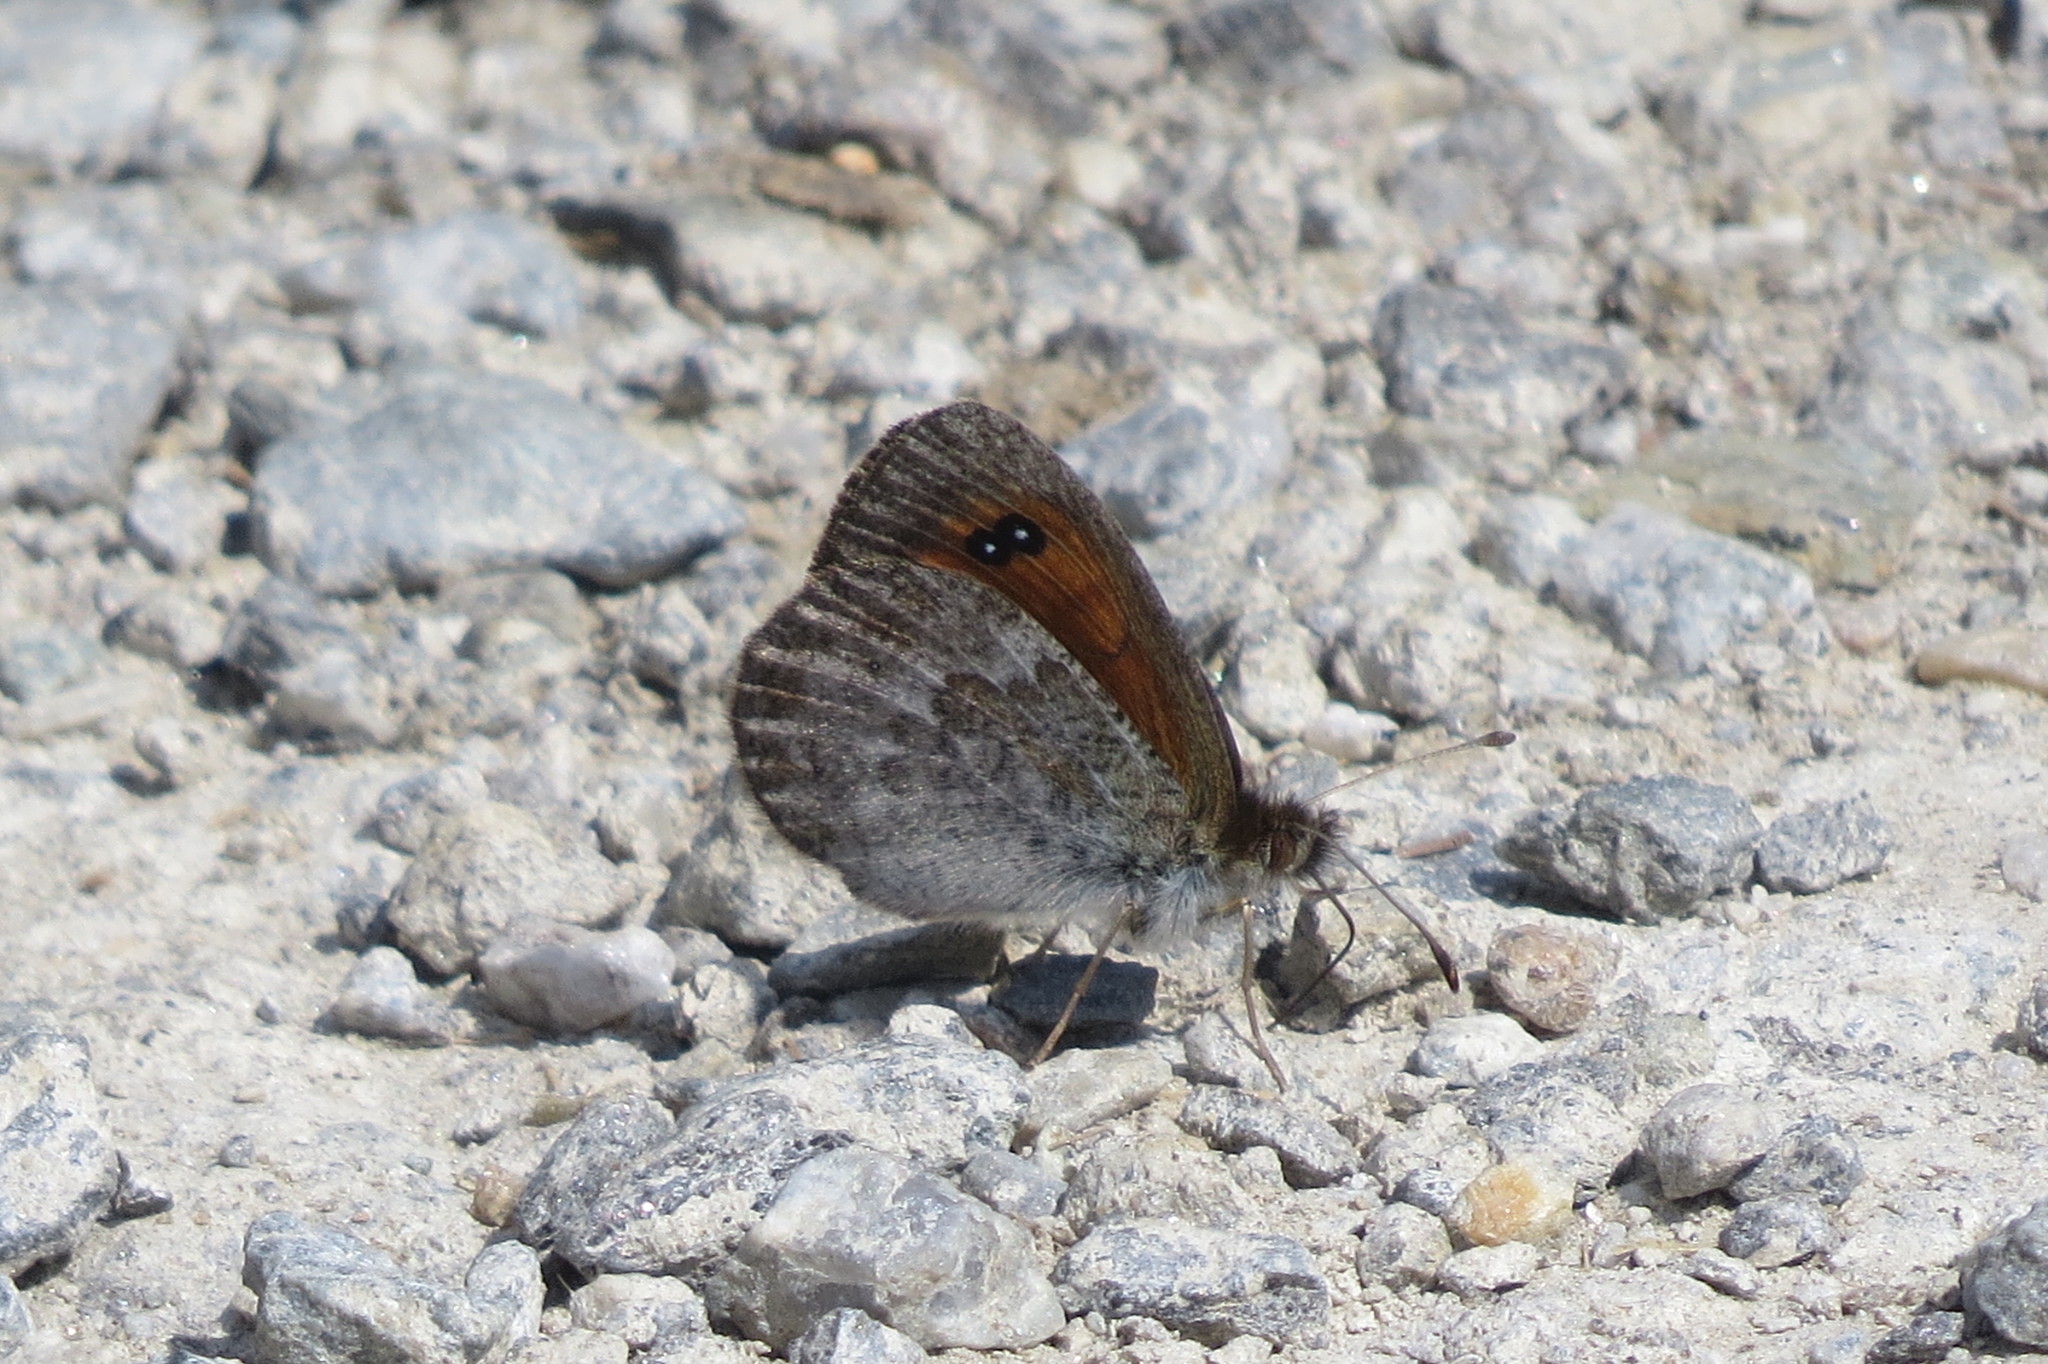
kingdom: Animalia
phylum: Arthropoda
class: Insecta
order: Lepidoptera
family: Nymphalidae
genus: Erebia
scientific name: Erebia cassioides
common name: Common brassy ringlet
